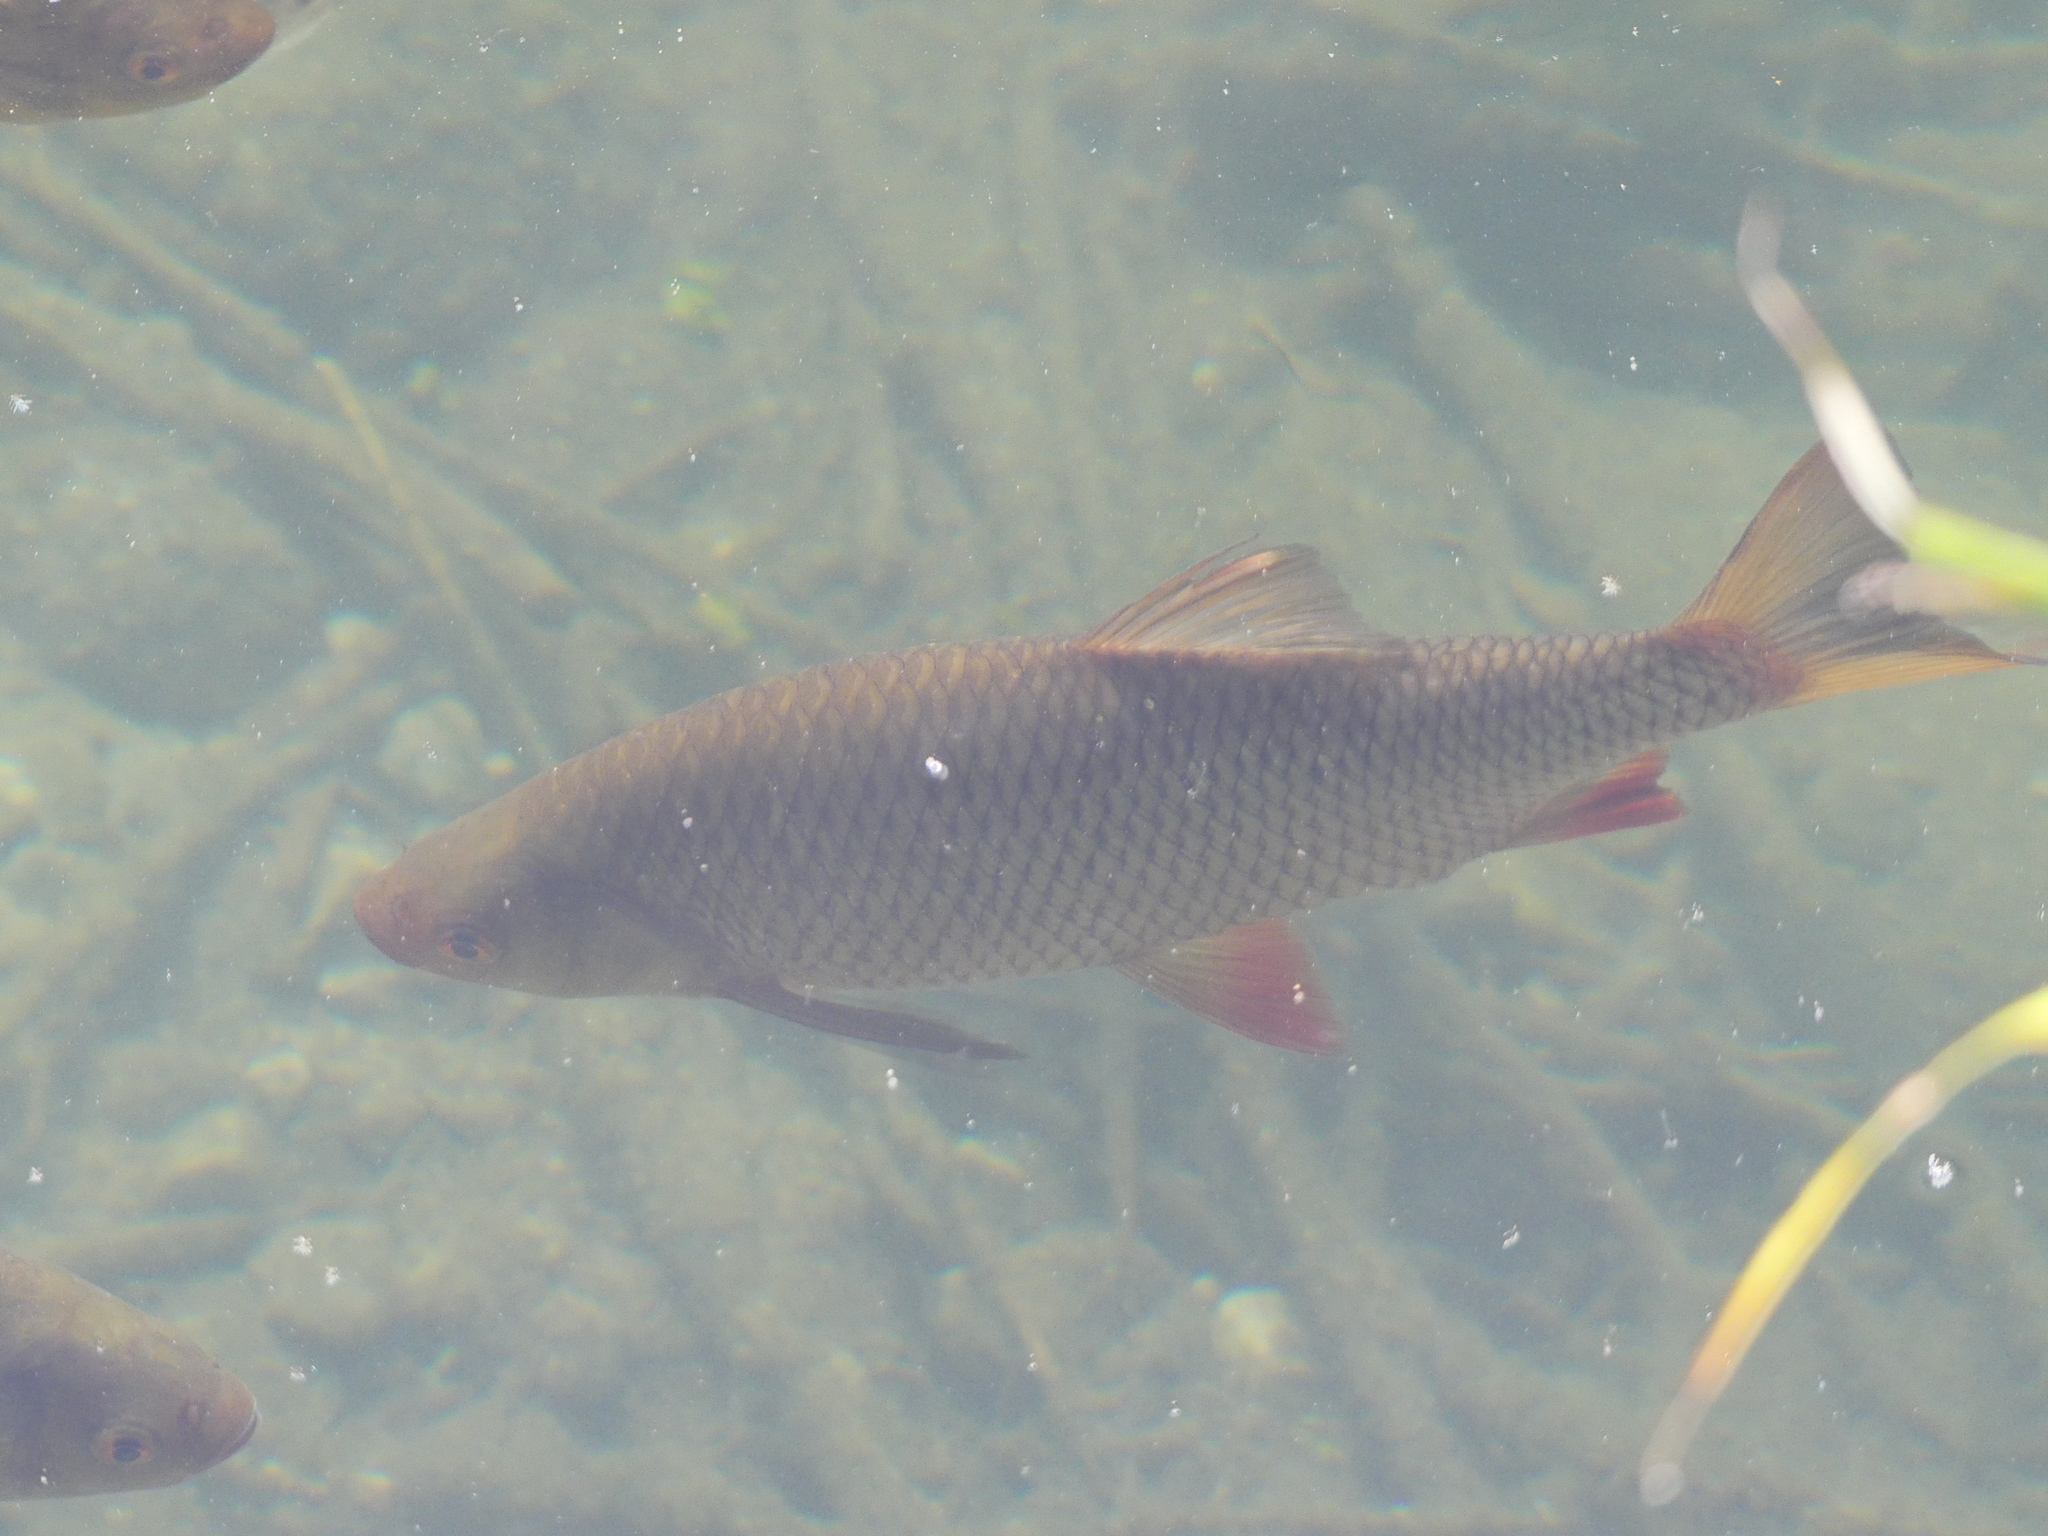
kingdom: Animalia
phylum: Chordata
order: Cypriniformes
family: Cyprinidae
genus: Squalius
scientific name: Squalius cephalus
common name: Chub
